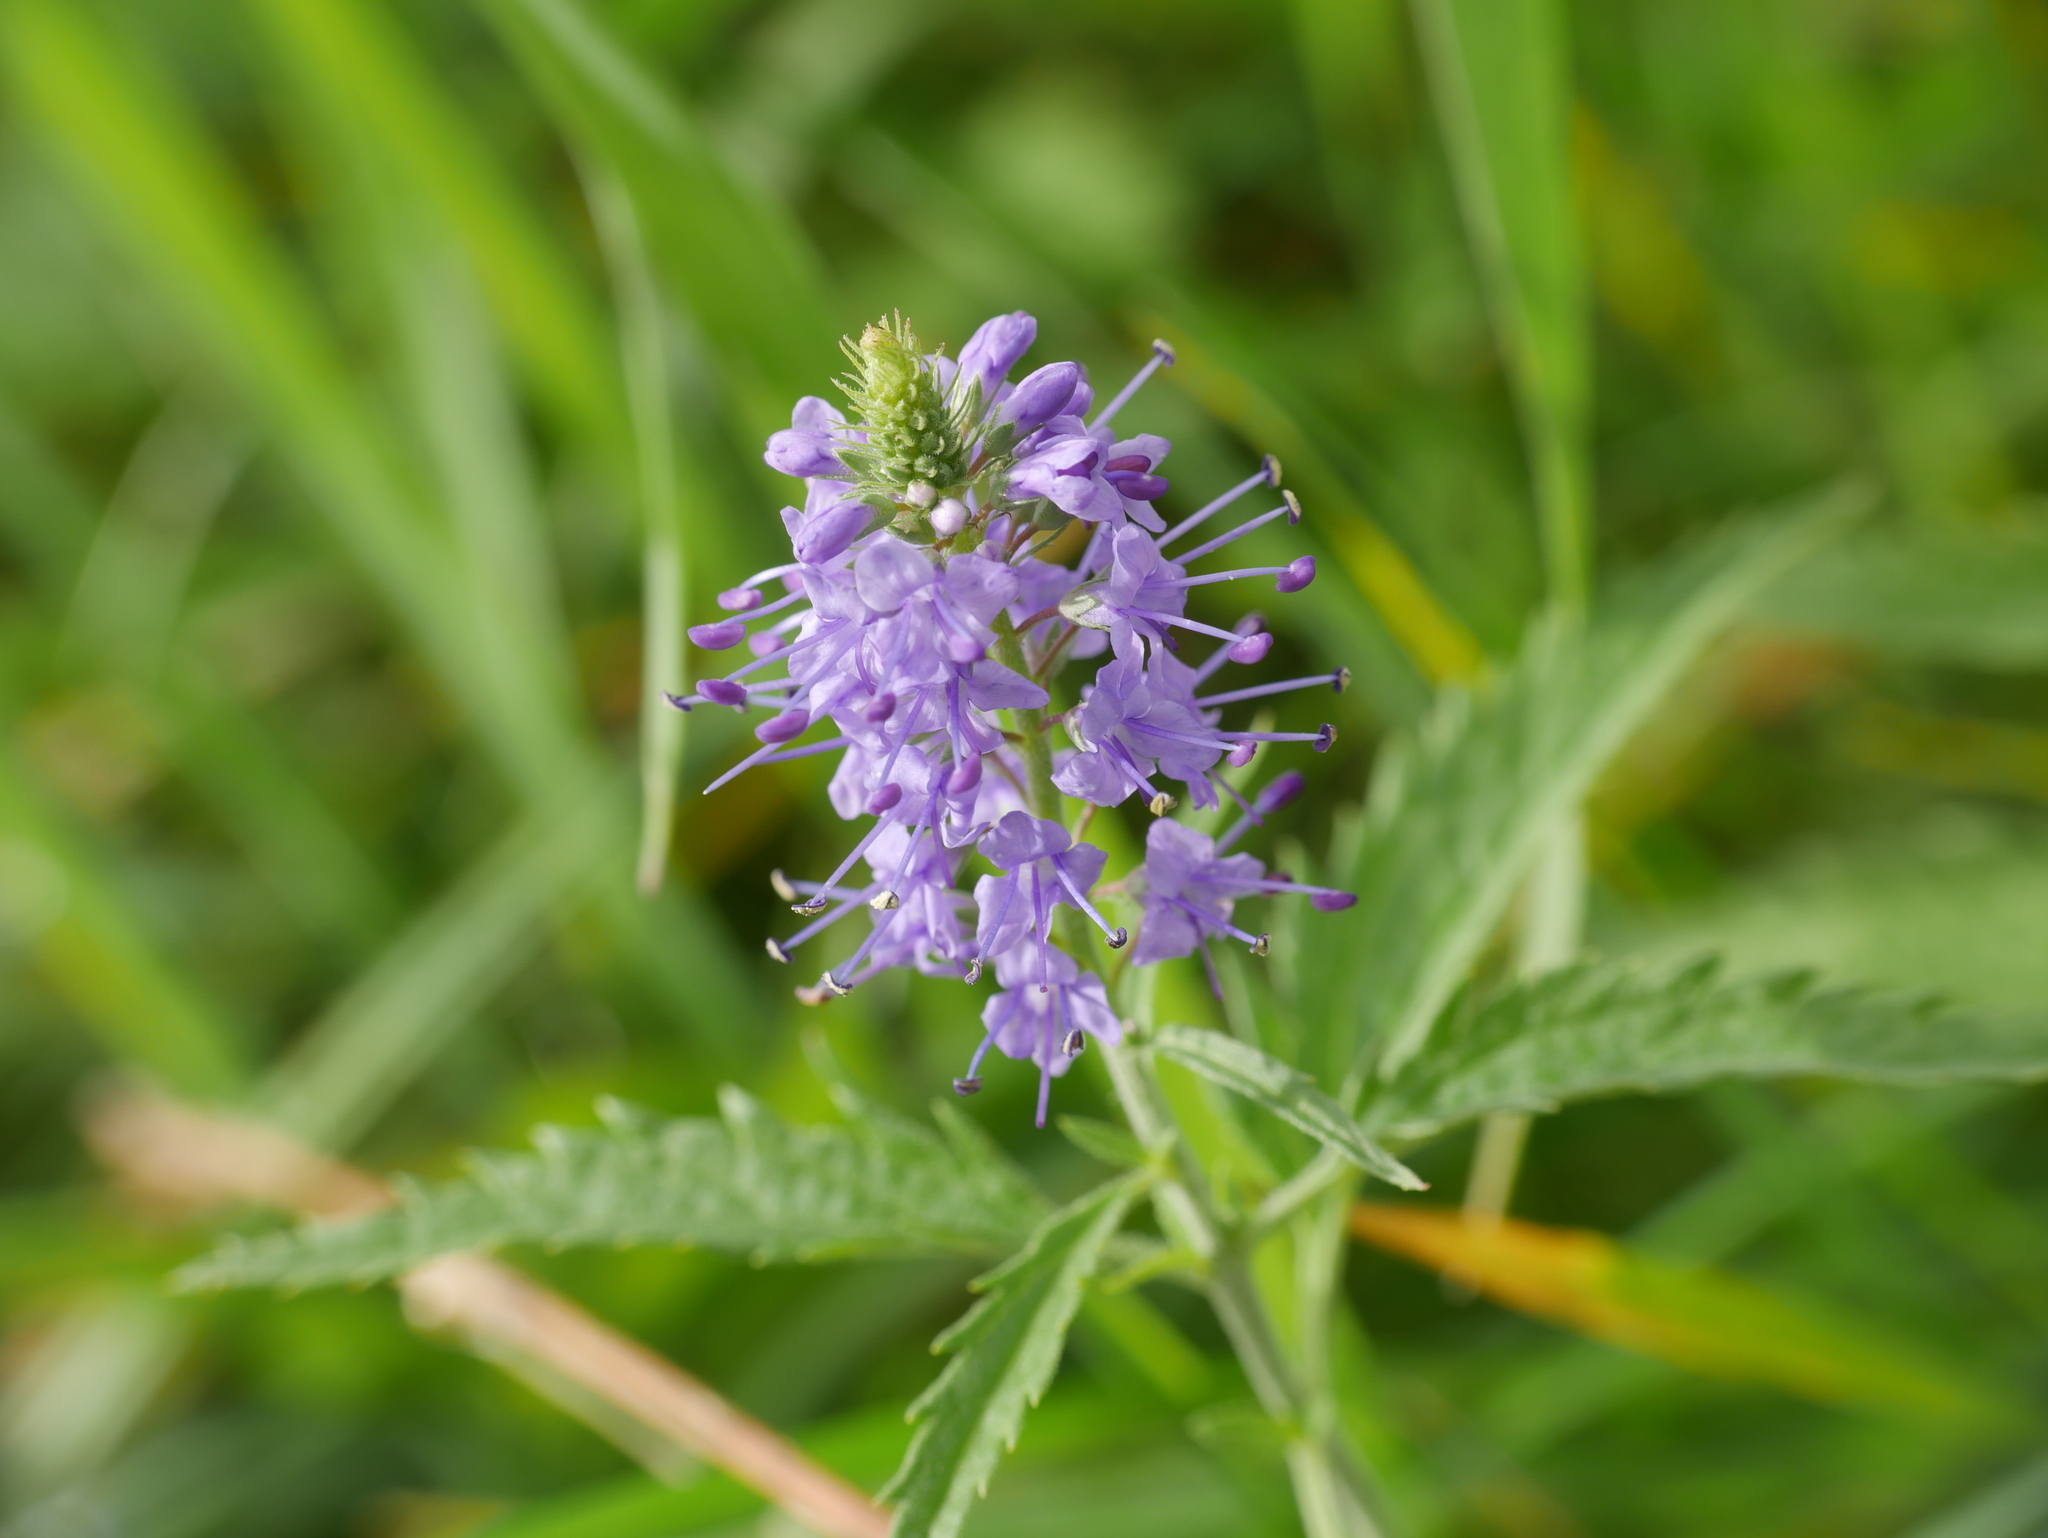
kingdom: Plantae
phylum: Tracheophyta
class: Magnoliopsida
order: Lamiales
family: Plantaginaceae
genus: Veronica
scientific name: Veronica longifolia
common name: Garden speedwell
